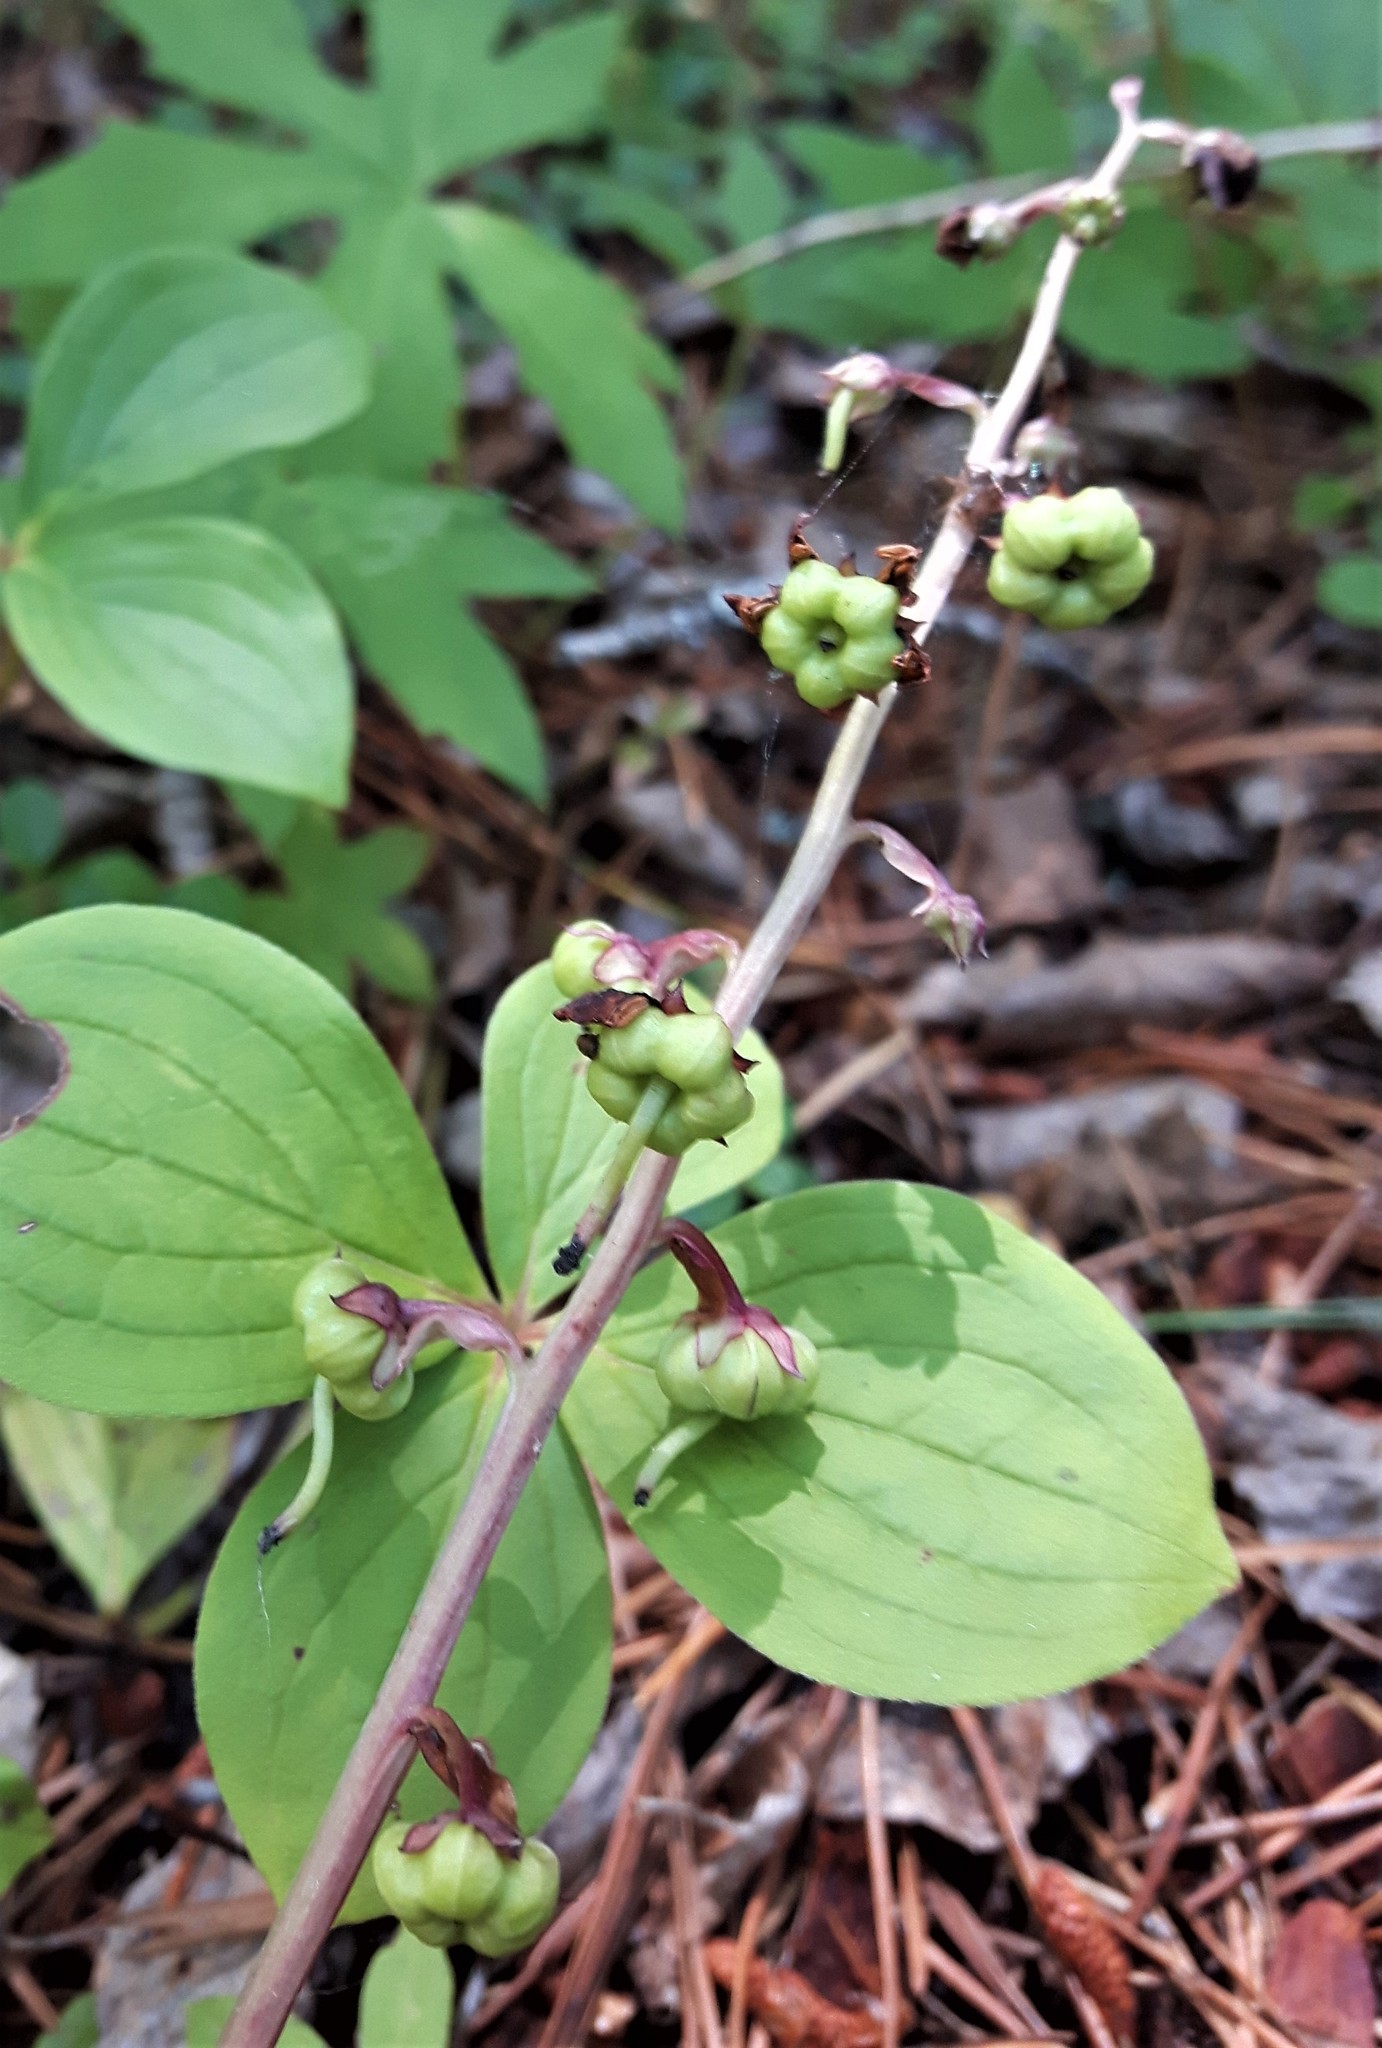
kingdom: Plantae
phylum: Tracheophyta
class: Magnoliopsida
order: Ericales
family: Ericaceae
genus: Pyrola
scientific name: Pyrola asarifolia
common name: Bog wintergreen
